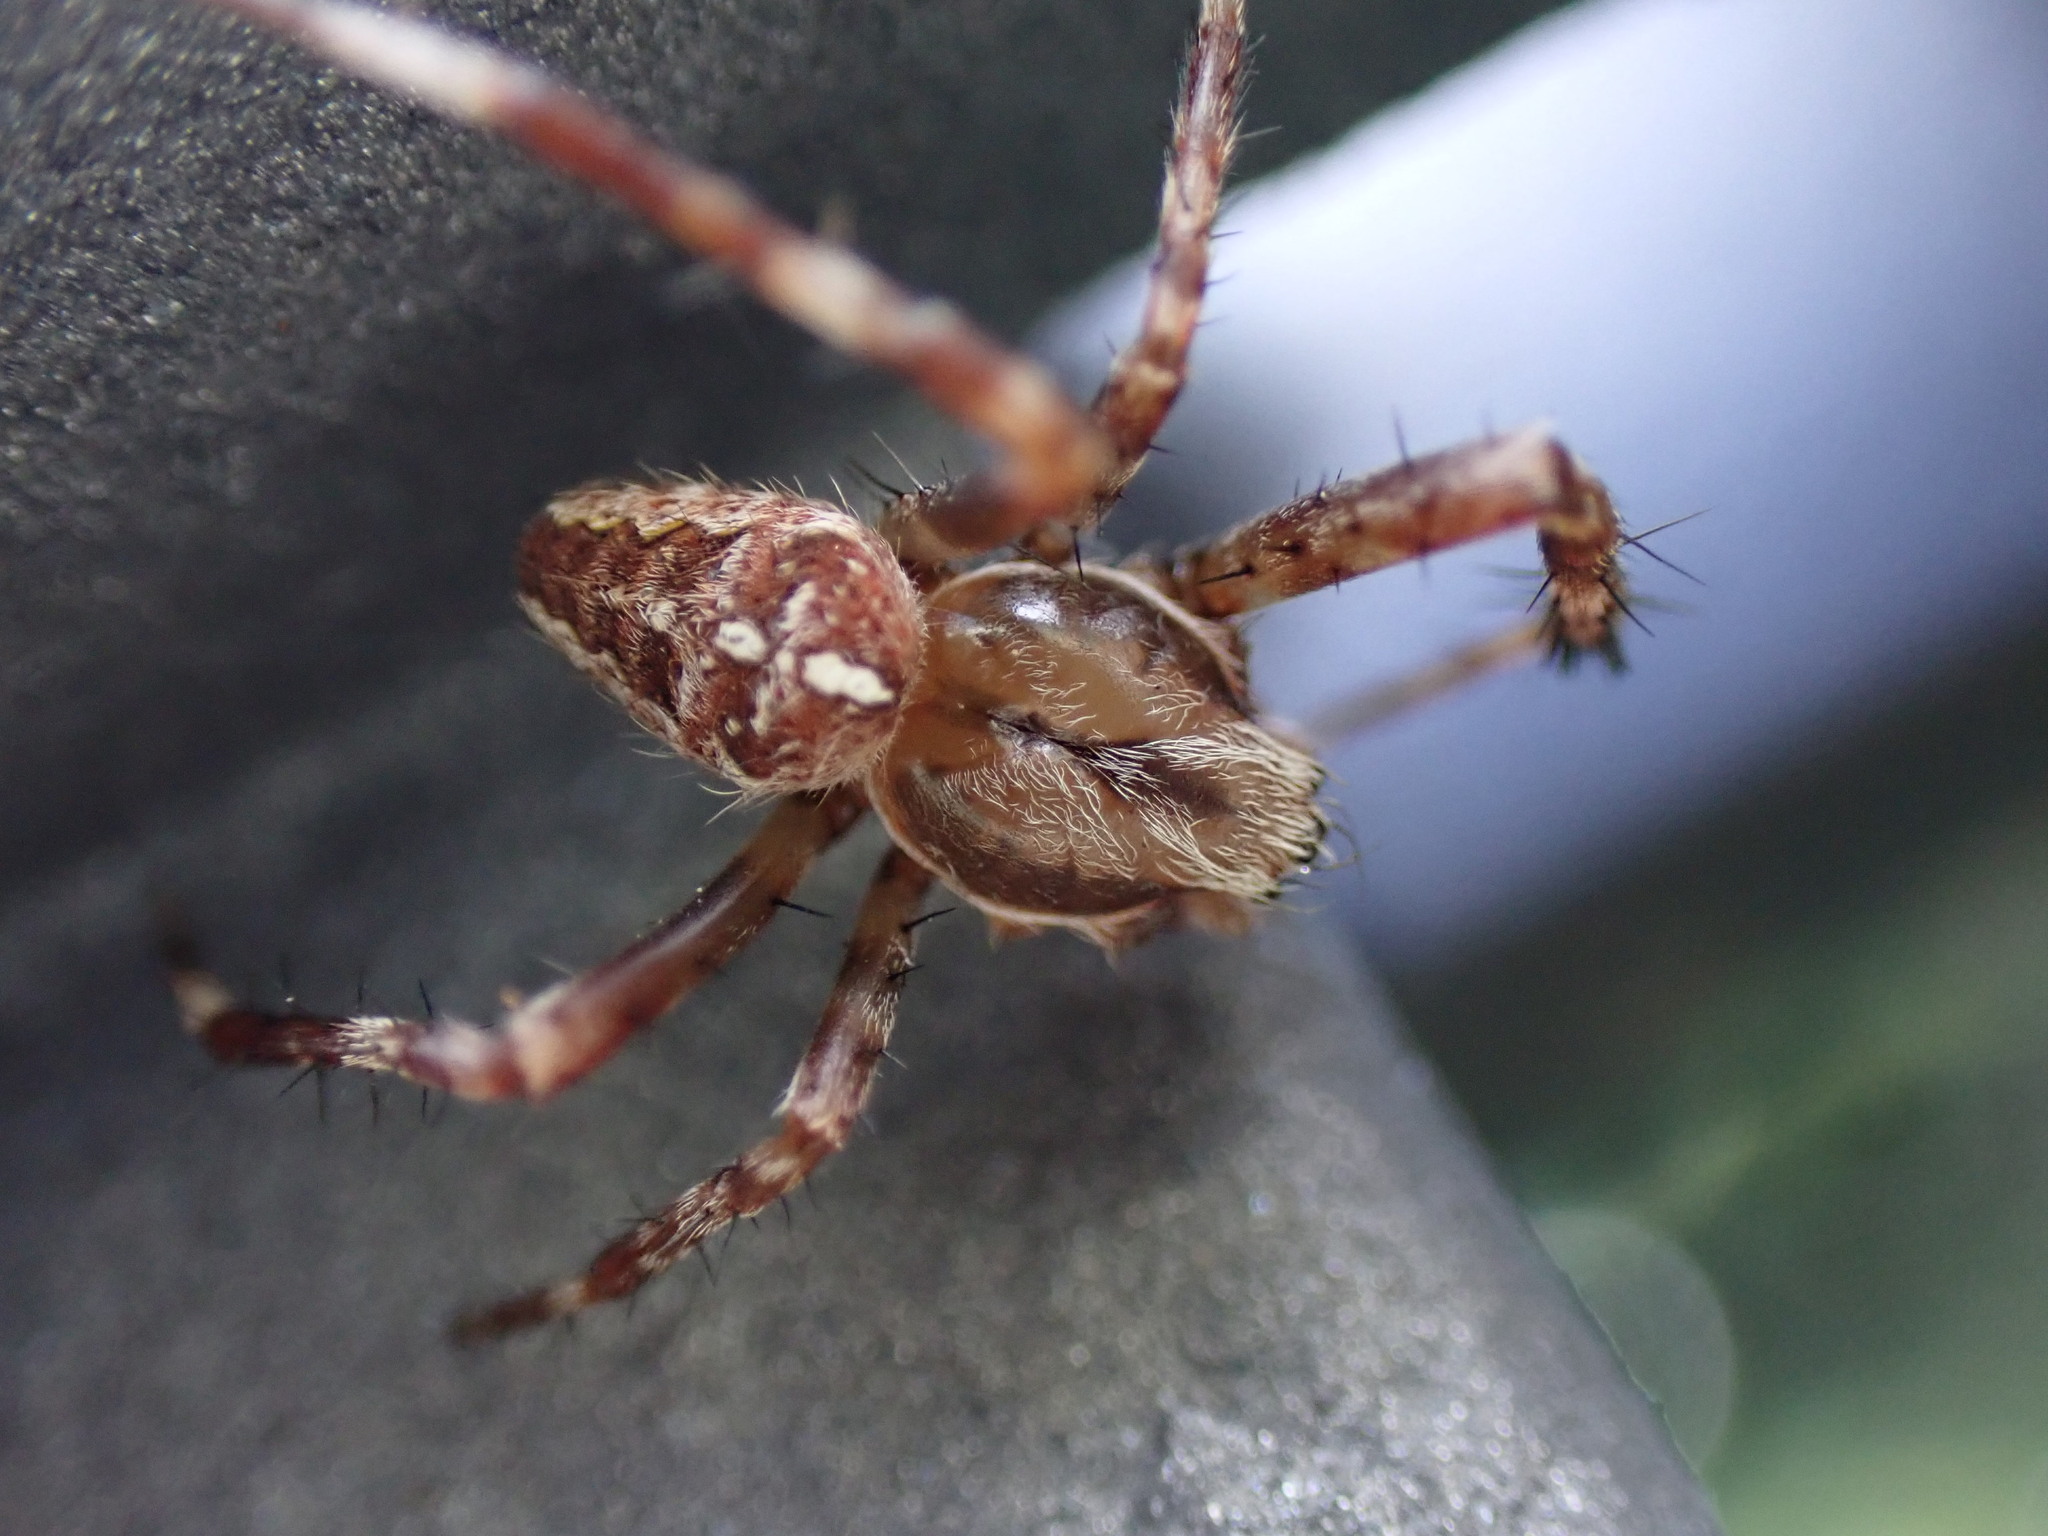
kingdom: Animalia
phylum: Arthropoda
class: Arachnida
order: Araneae
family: Araneidae
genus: Araneus
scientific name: Araneus diadematus
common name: Cross orbweaver
